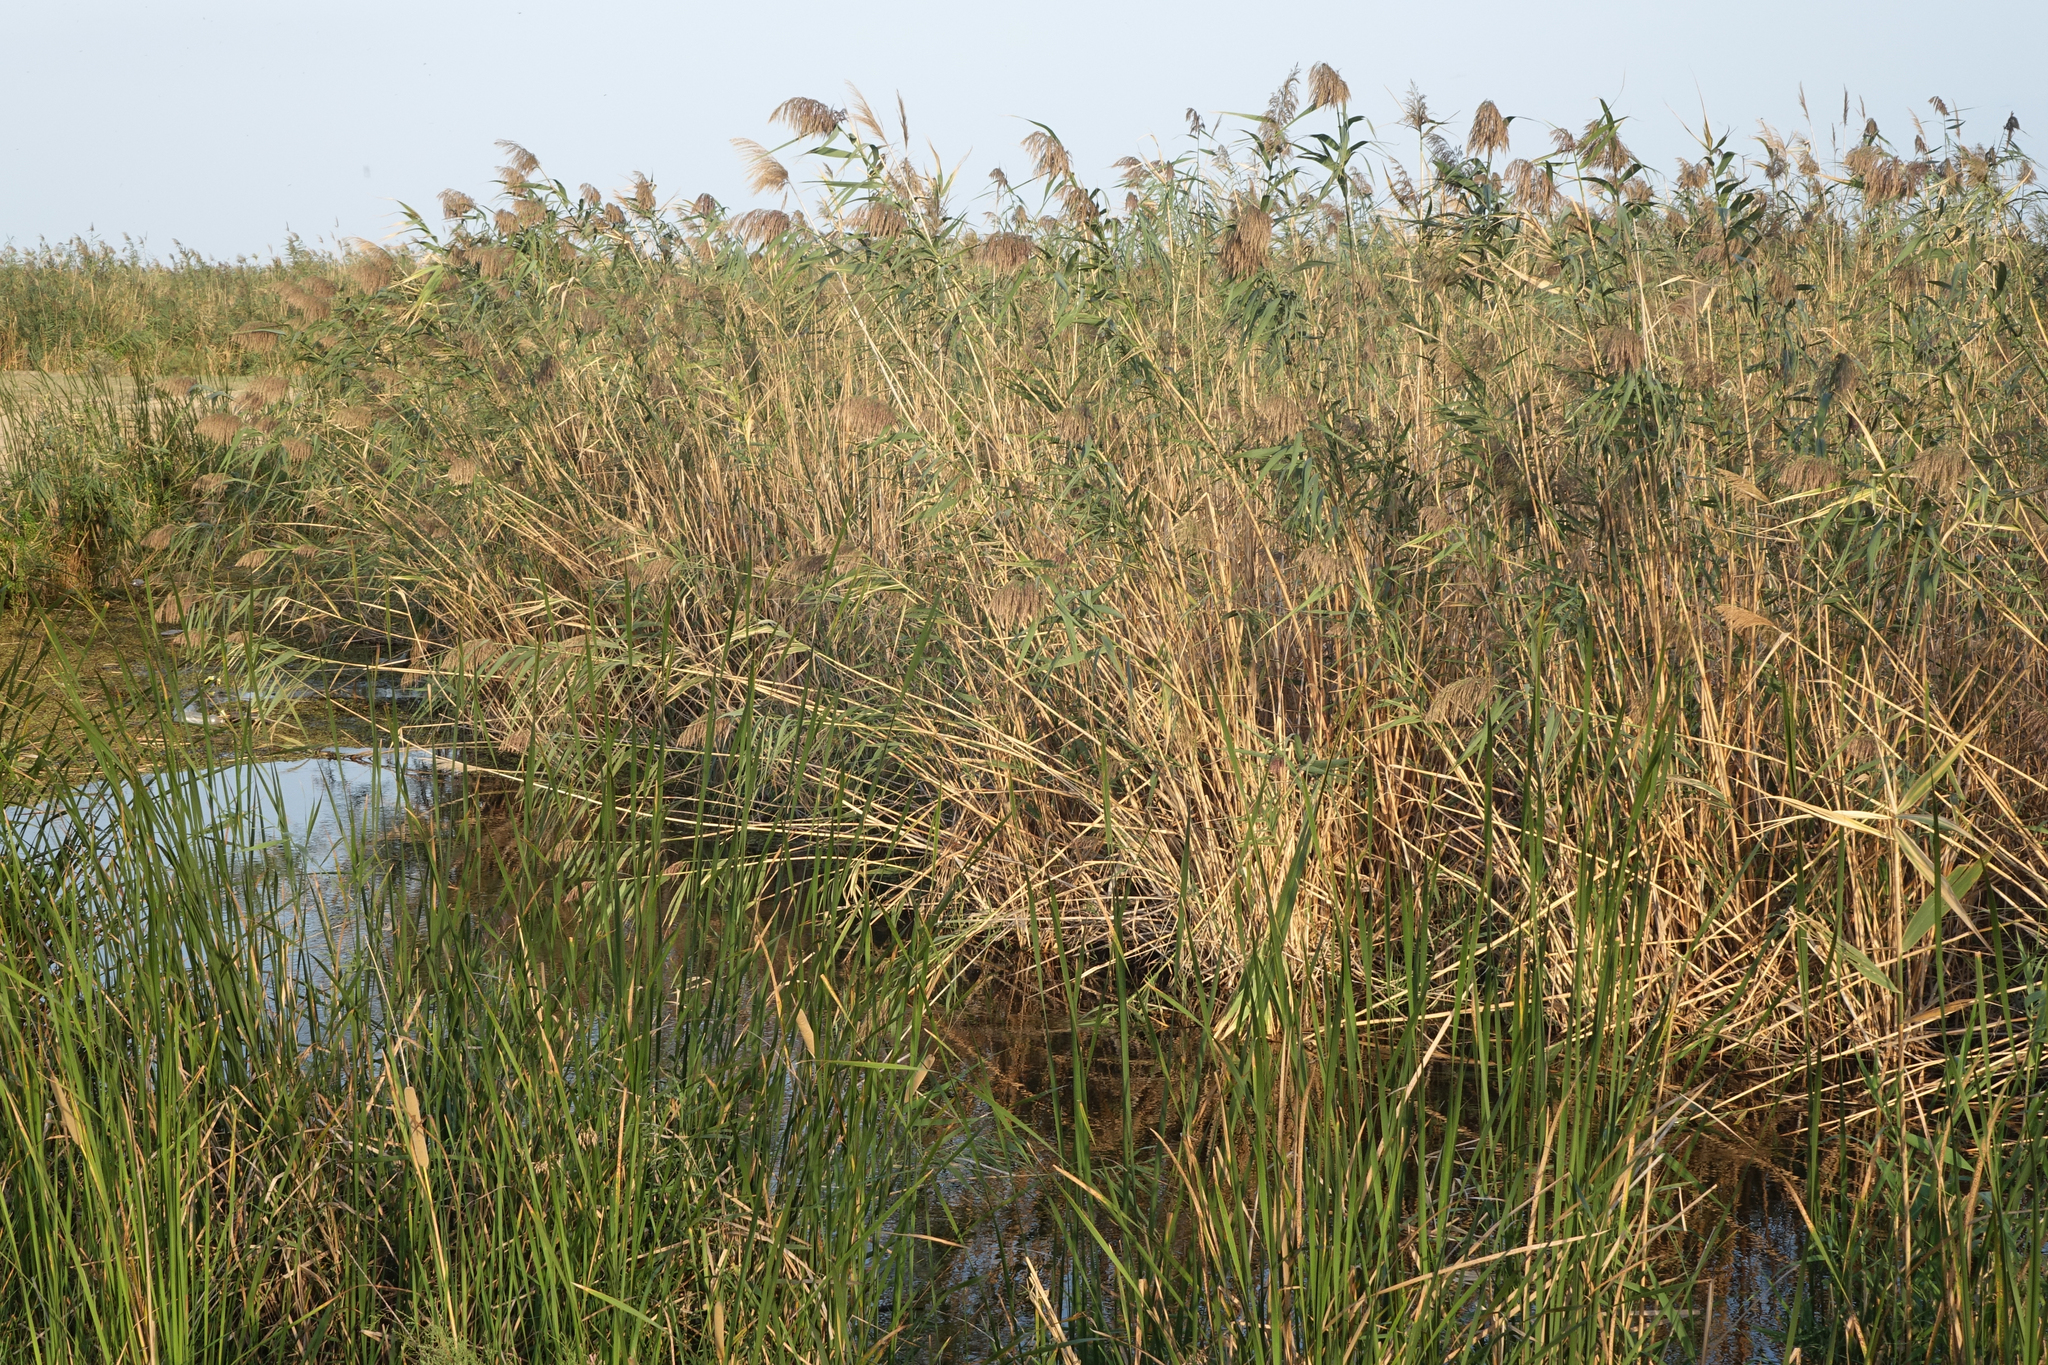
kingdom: Plantae
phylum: Tracheophyta
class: Liliopsida
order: Poales
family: Poaceae
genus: Phragmites
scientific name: Phragmites australis
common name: Common reed
